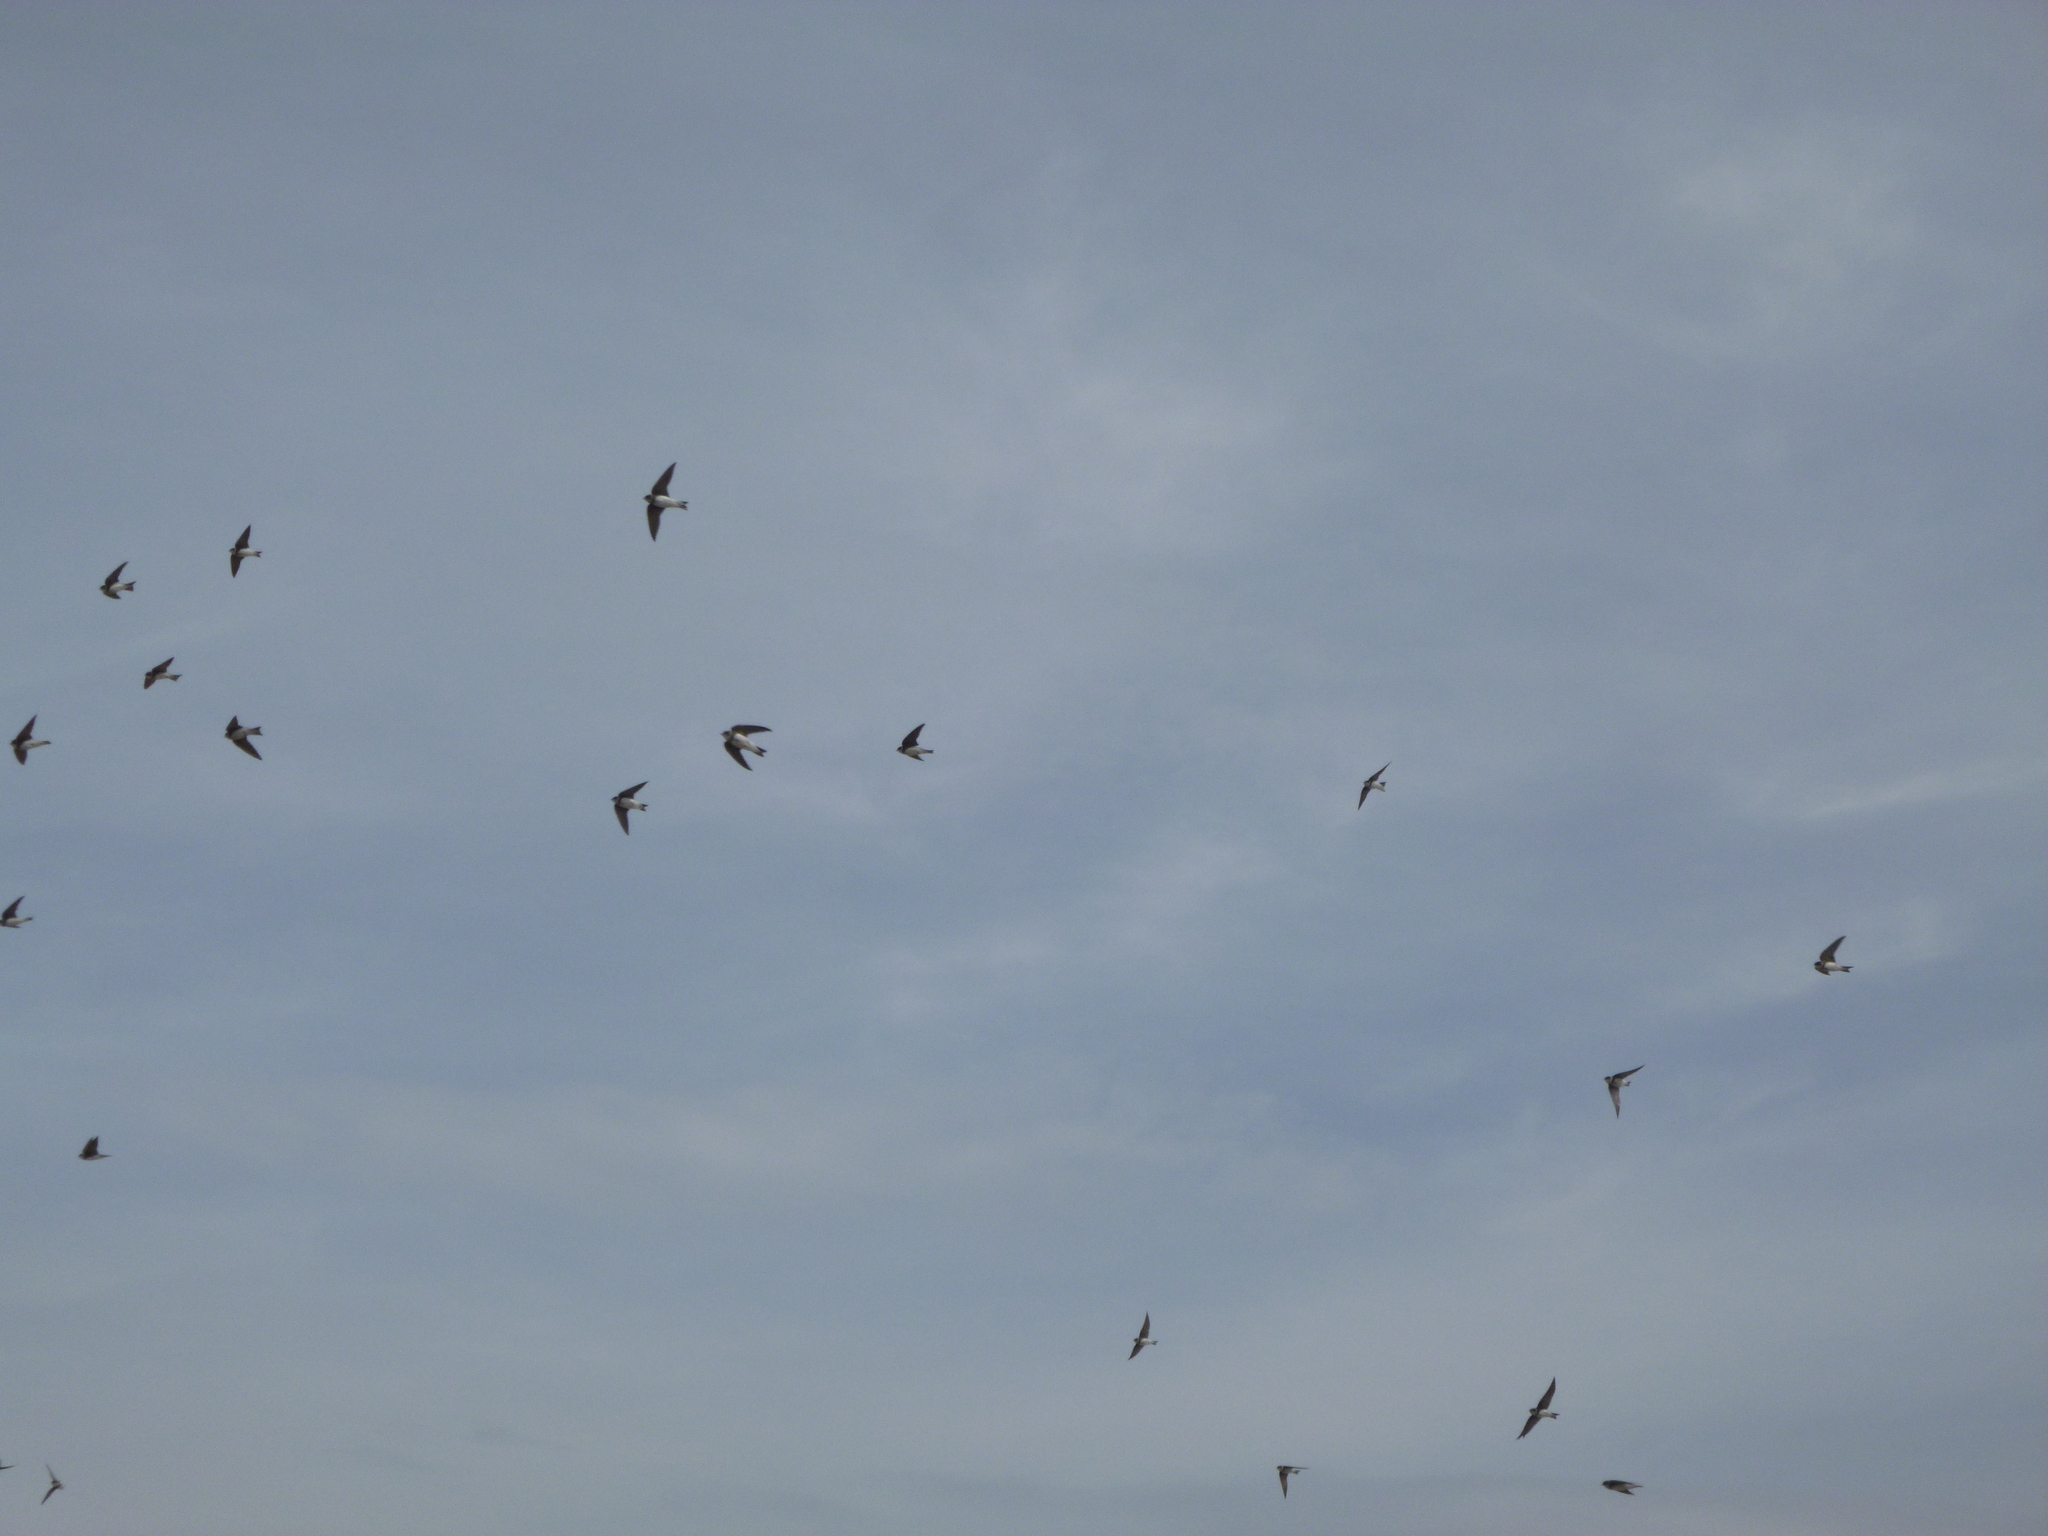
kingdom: Animalia
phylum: Chordata
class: Aves
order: Passeriformes
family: Hirundinidae
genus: Riparia
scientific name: Riparia riparia
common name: Sand martin
